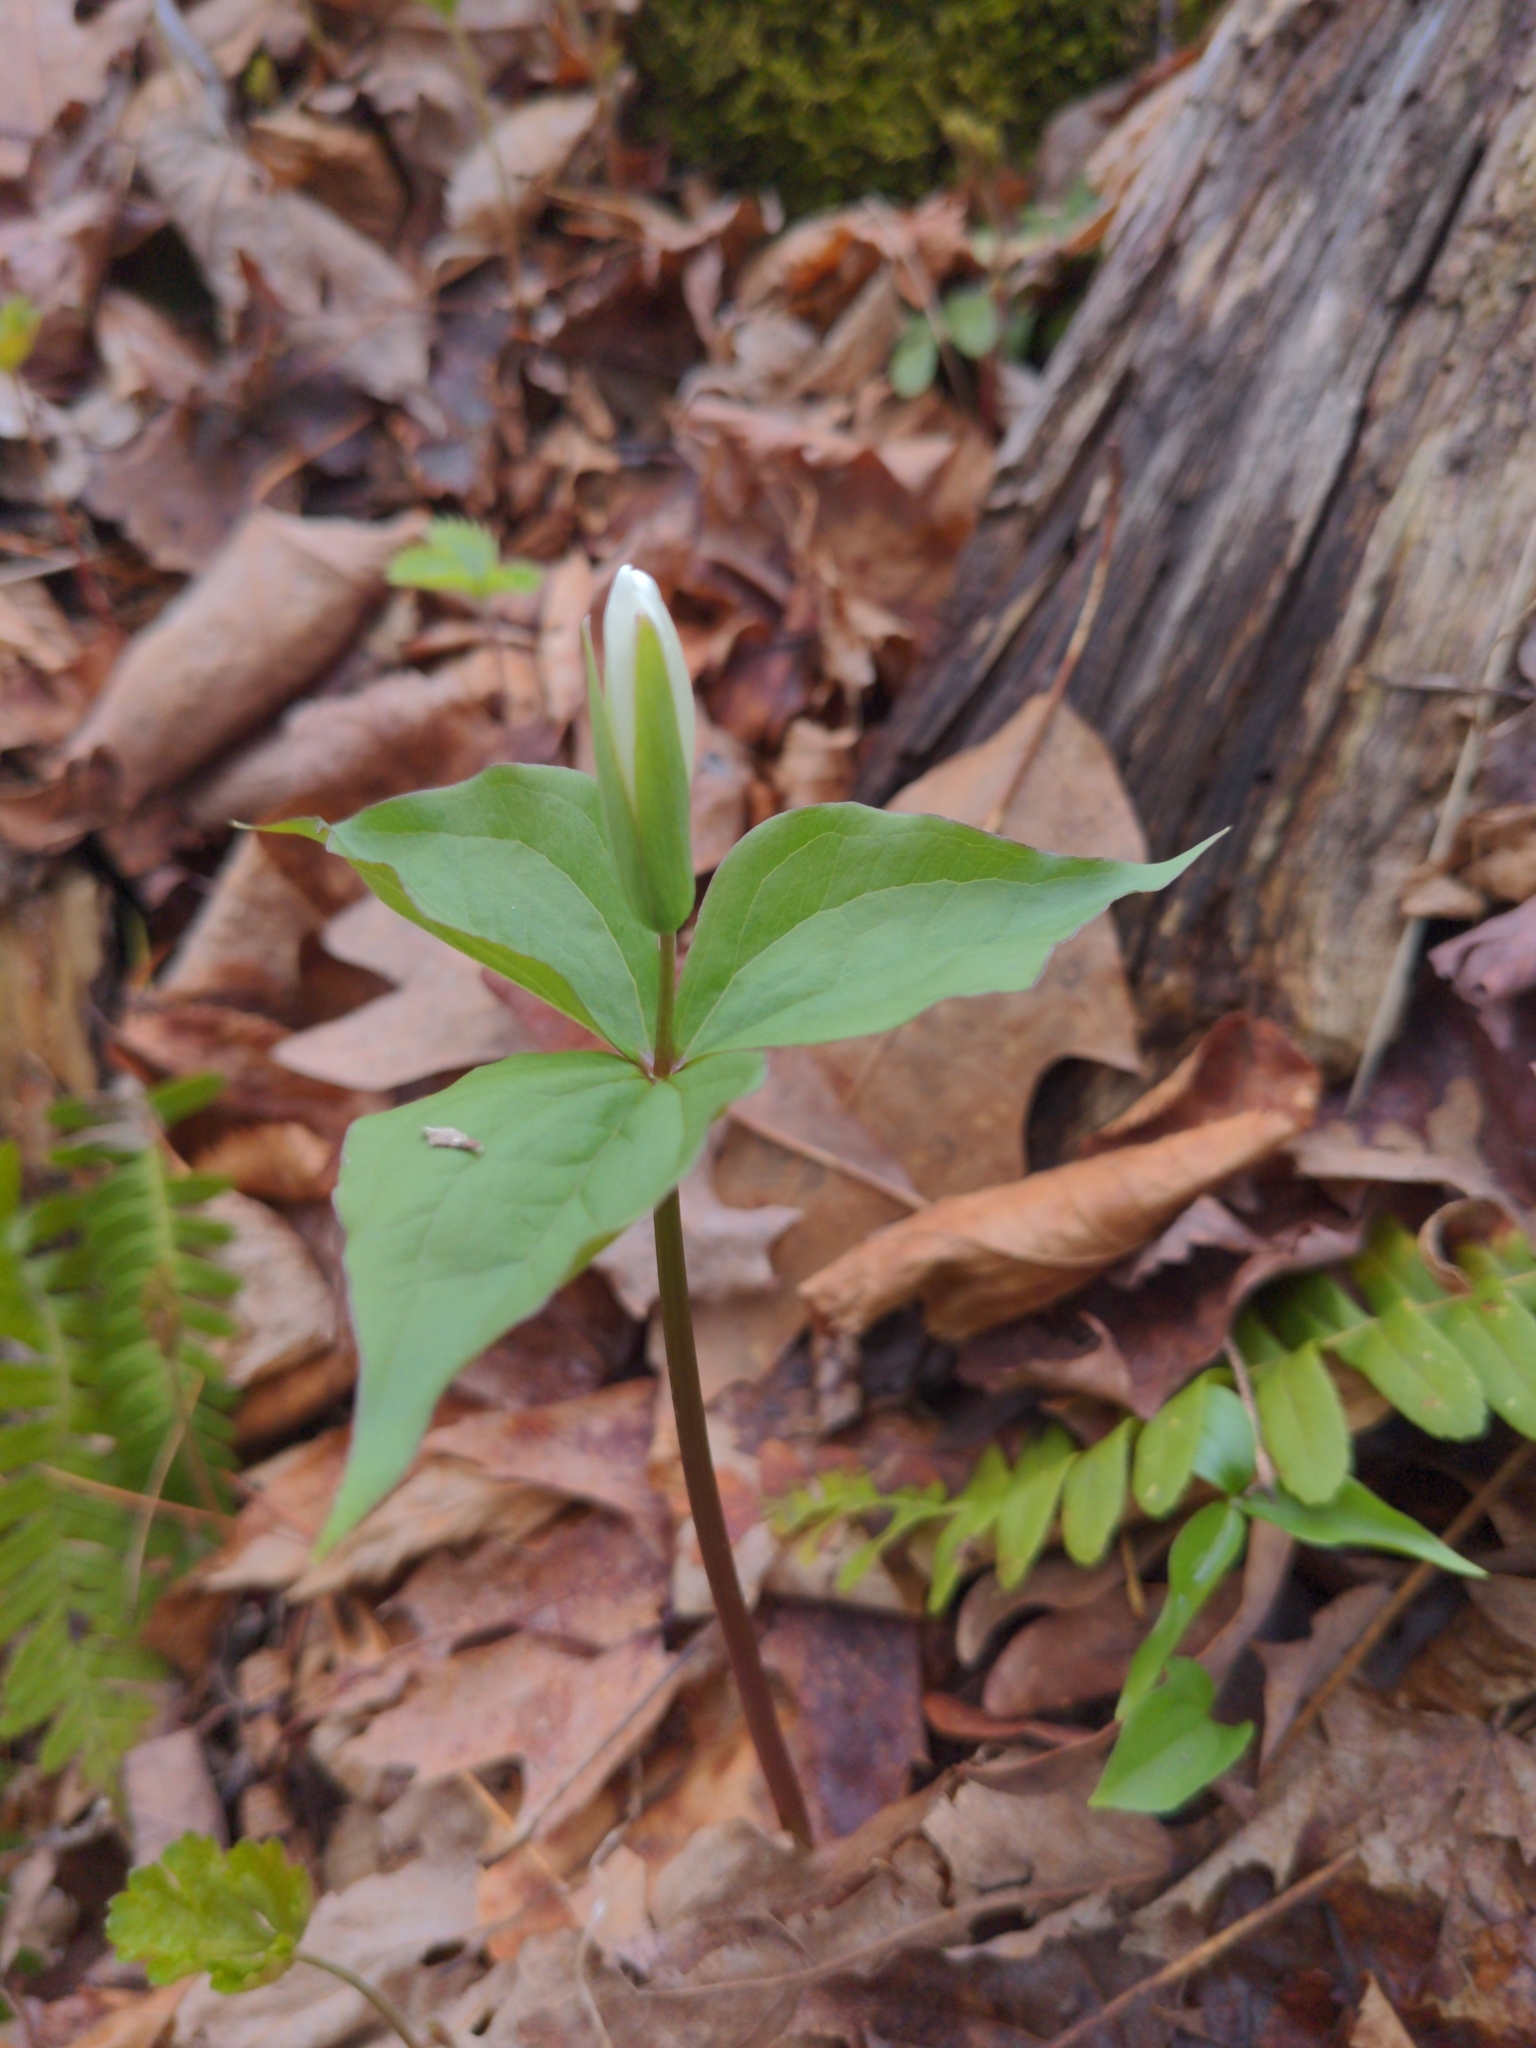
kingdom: Plantae
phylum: Tracheophyta
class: Liliopsida
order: Liliales
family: Melanthiaceae
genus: Trillium
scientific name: Trillium grandiflorum
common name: Great white trillium
